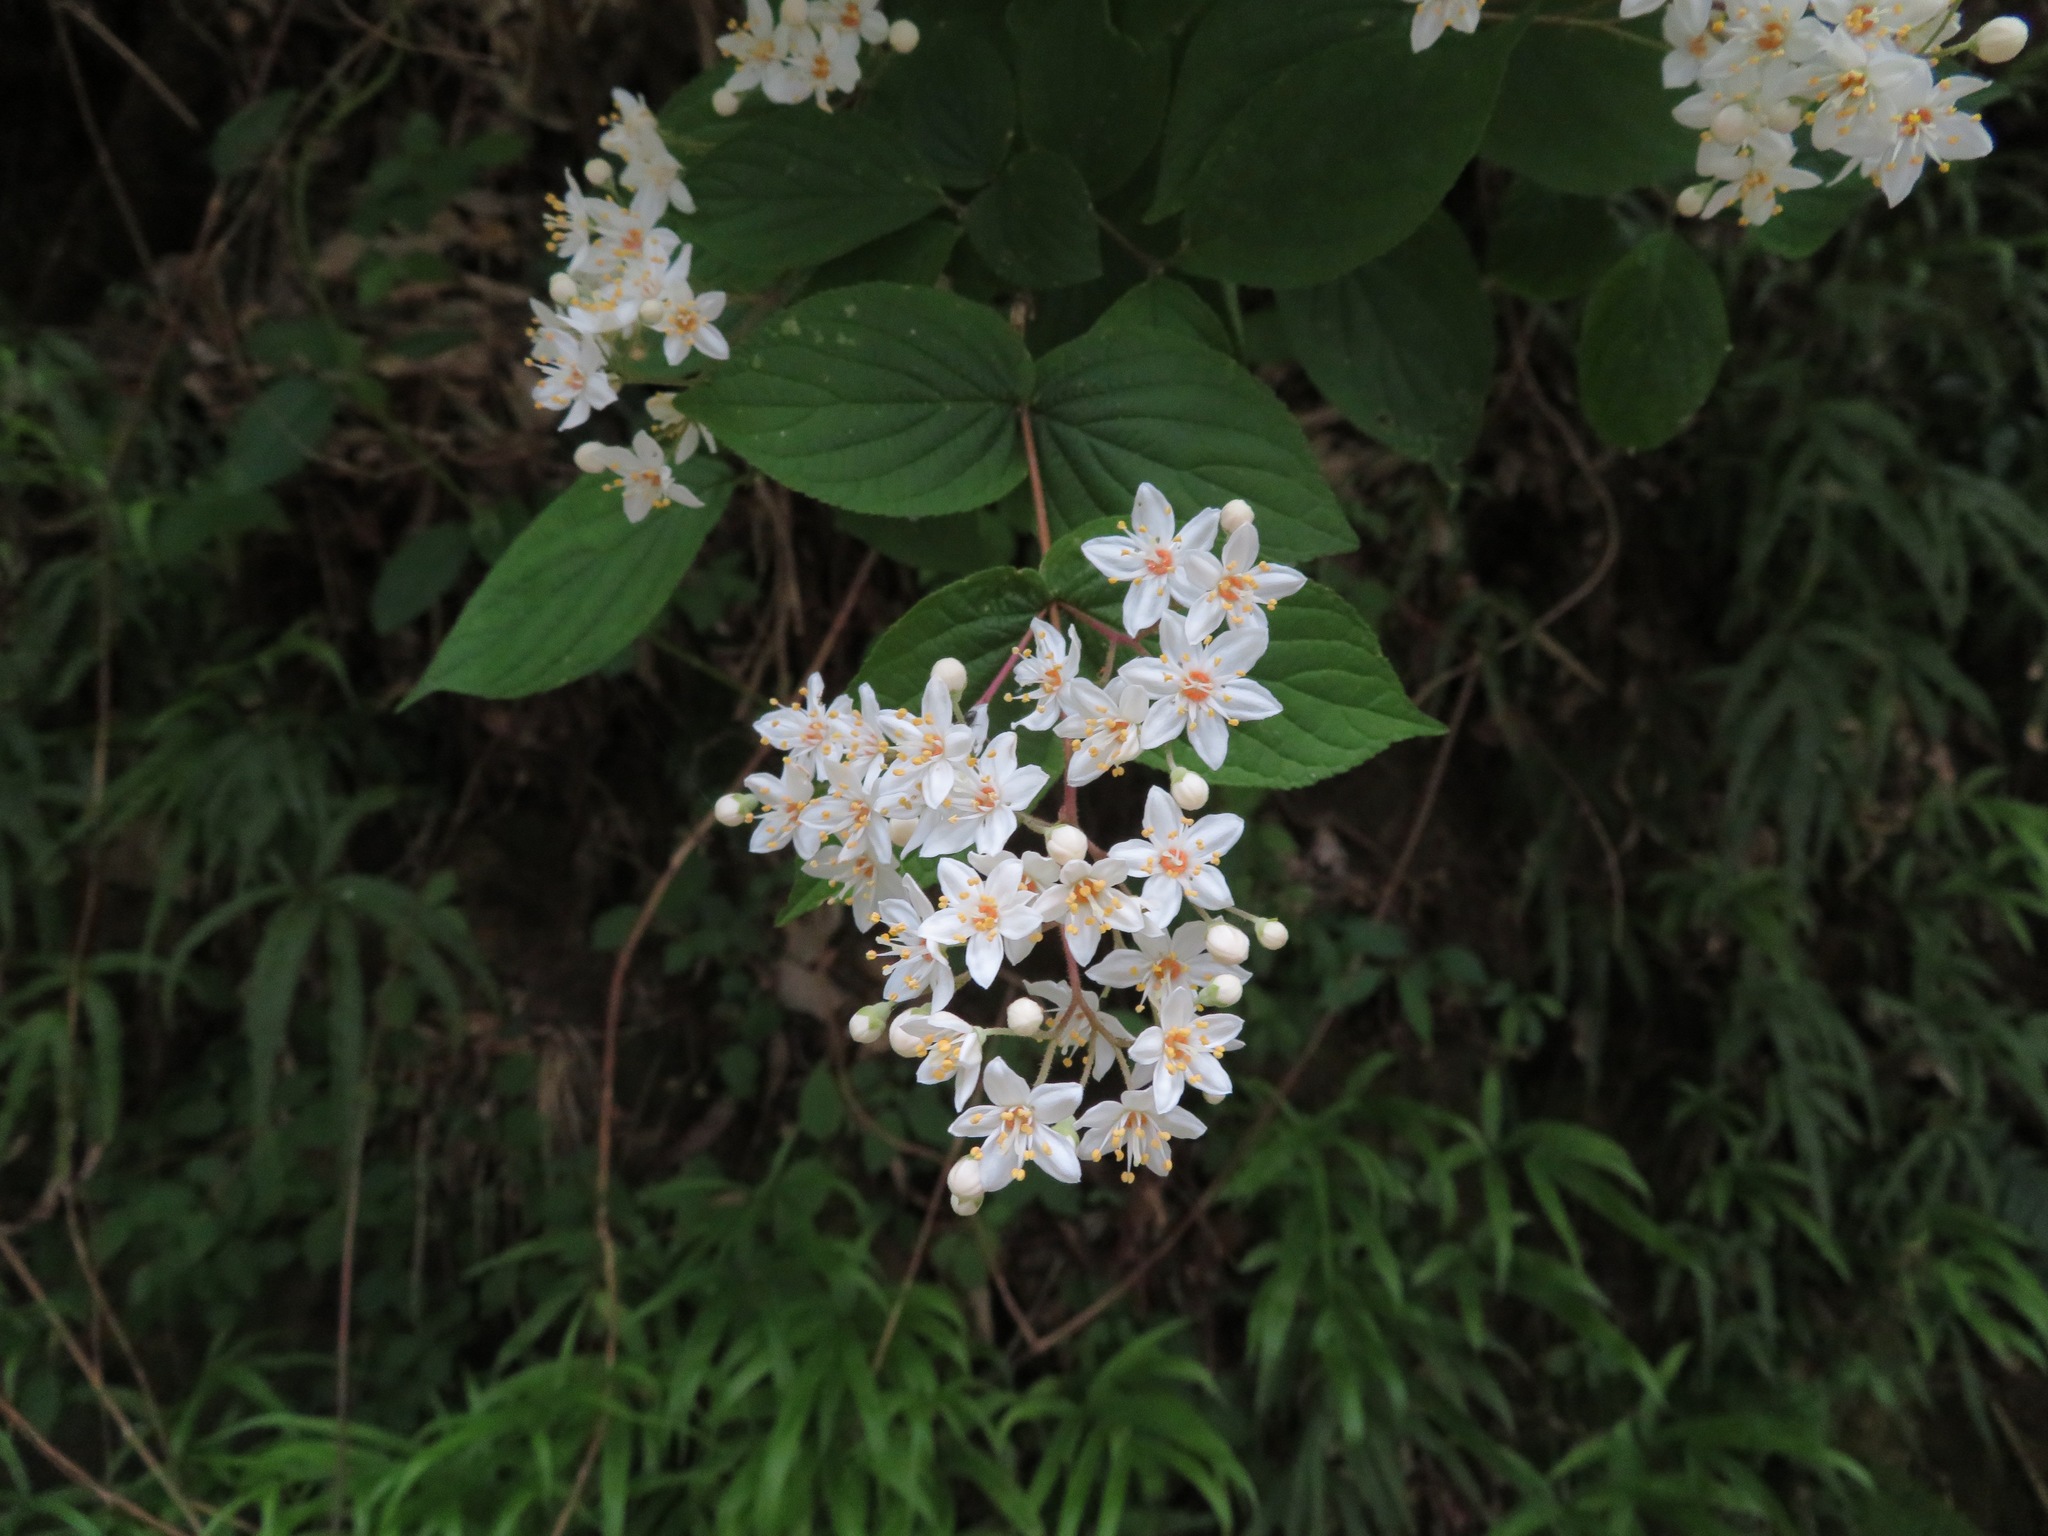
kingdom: Plantae
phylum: Tracheophyta
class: Magnoliopsida
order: Cornales
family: Hydrangeaceae
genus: Deutzia
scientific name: Deutzia scabra
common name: Deutzia
